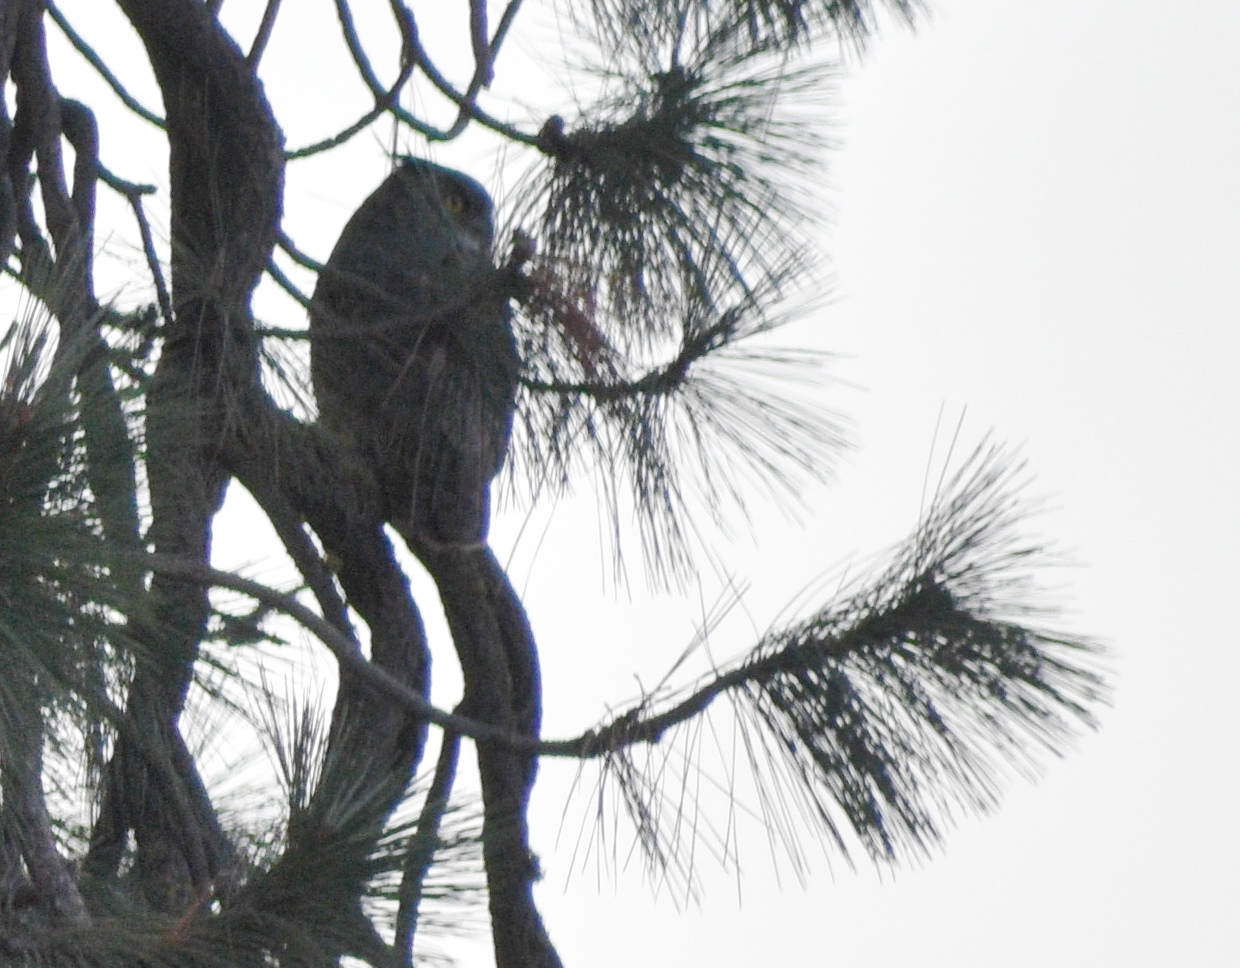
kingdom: Animalia
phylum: Chordata
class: Aves
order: Strigiformes
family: Strigidae
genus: Bubo
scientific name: Bubo virginianus
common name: Great horned owl
